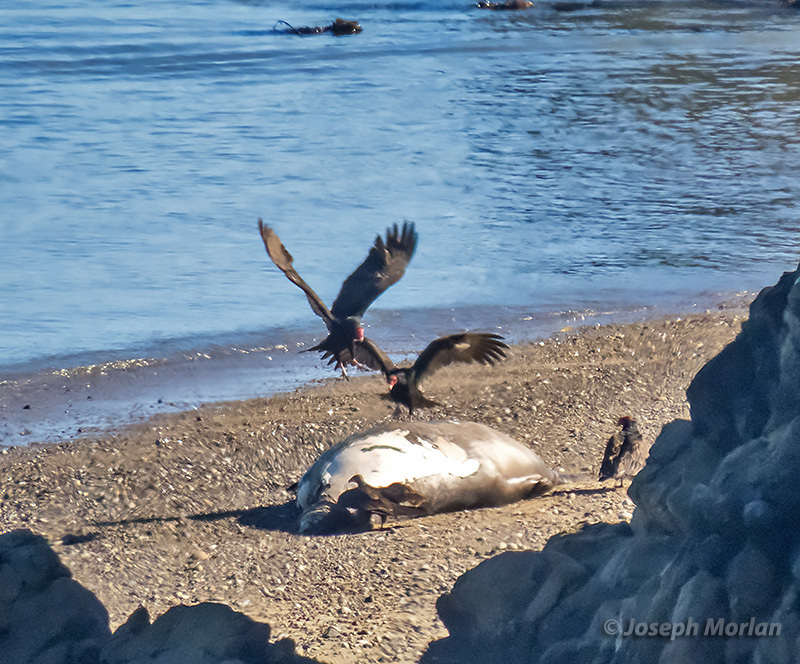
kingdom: Animalia
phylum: Chordata
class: Aves
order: Accipitriformes
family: Cathartidae
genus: Cathartes
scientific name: Cathartes aura
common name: Turkey vulture
